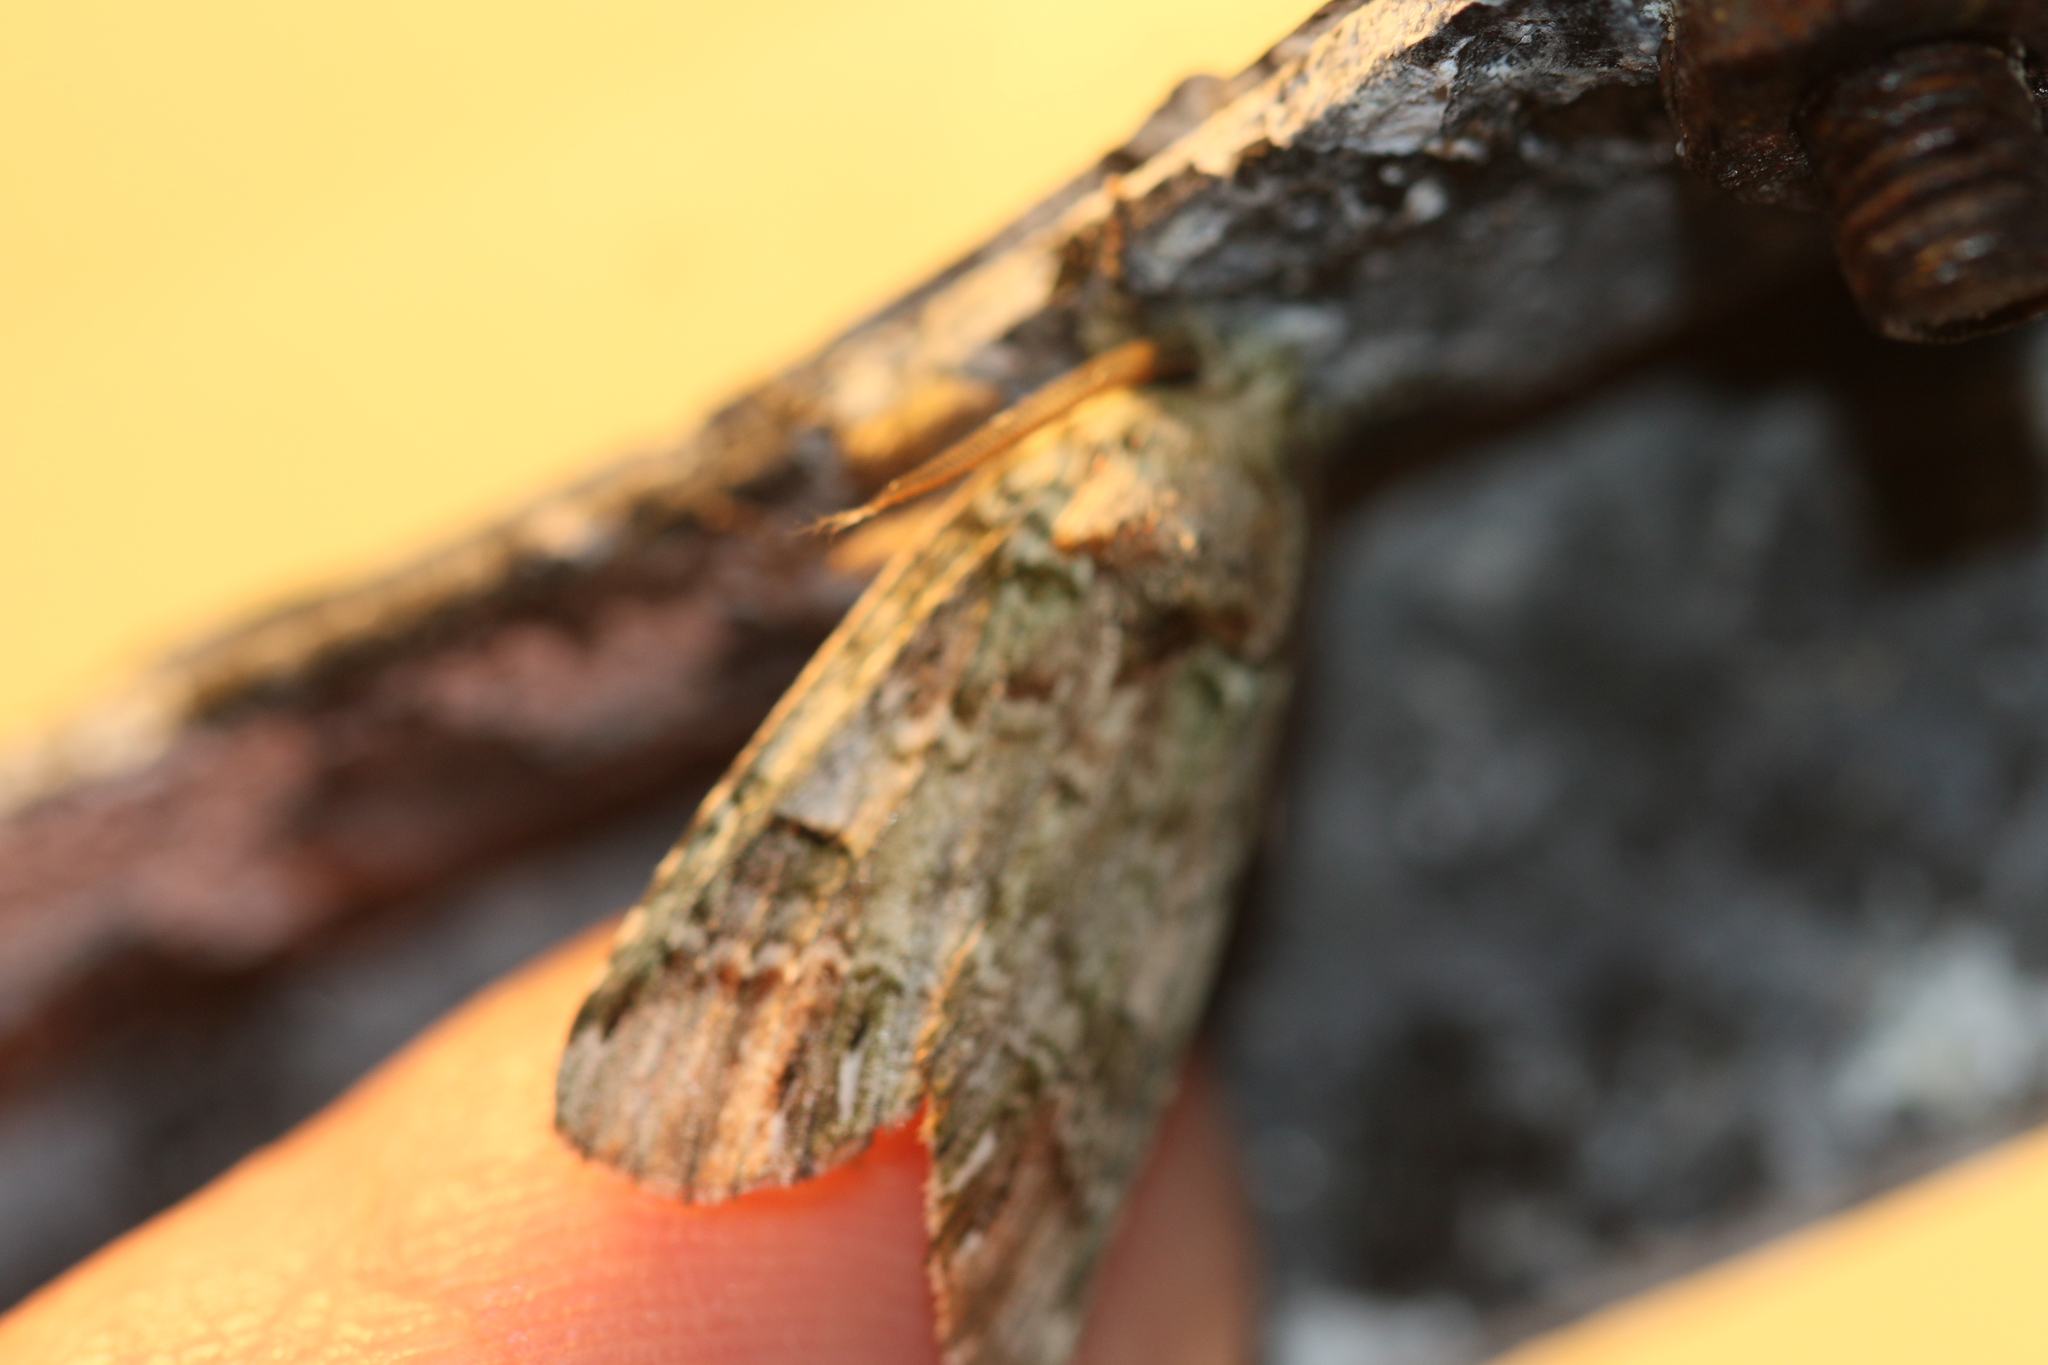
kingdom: Animalia
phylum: Arthropoda
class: Insecta
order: Lepidoptera
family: Notodontidae
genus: Schizura
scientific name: Schizura
